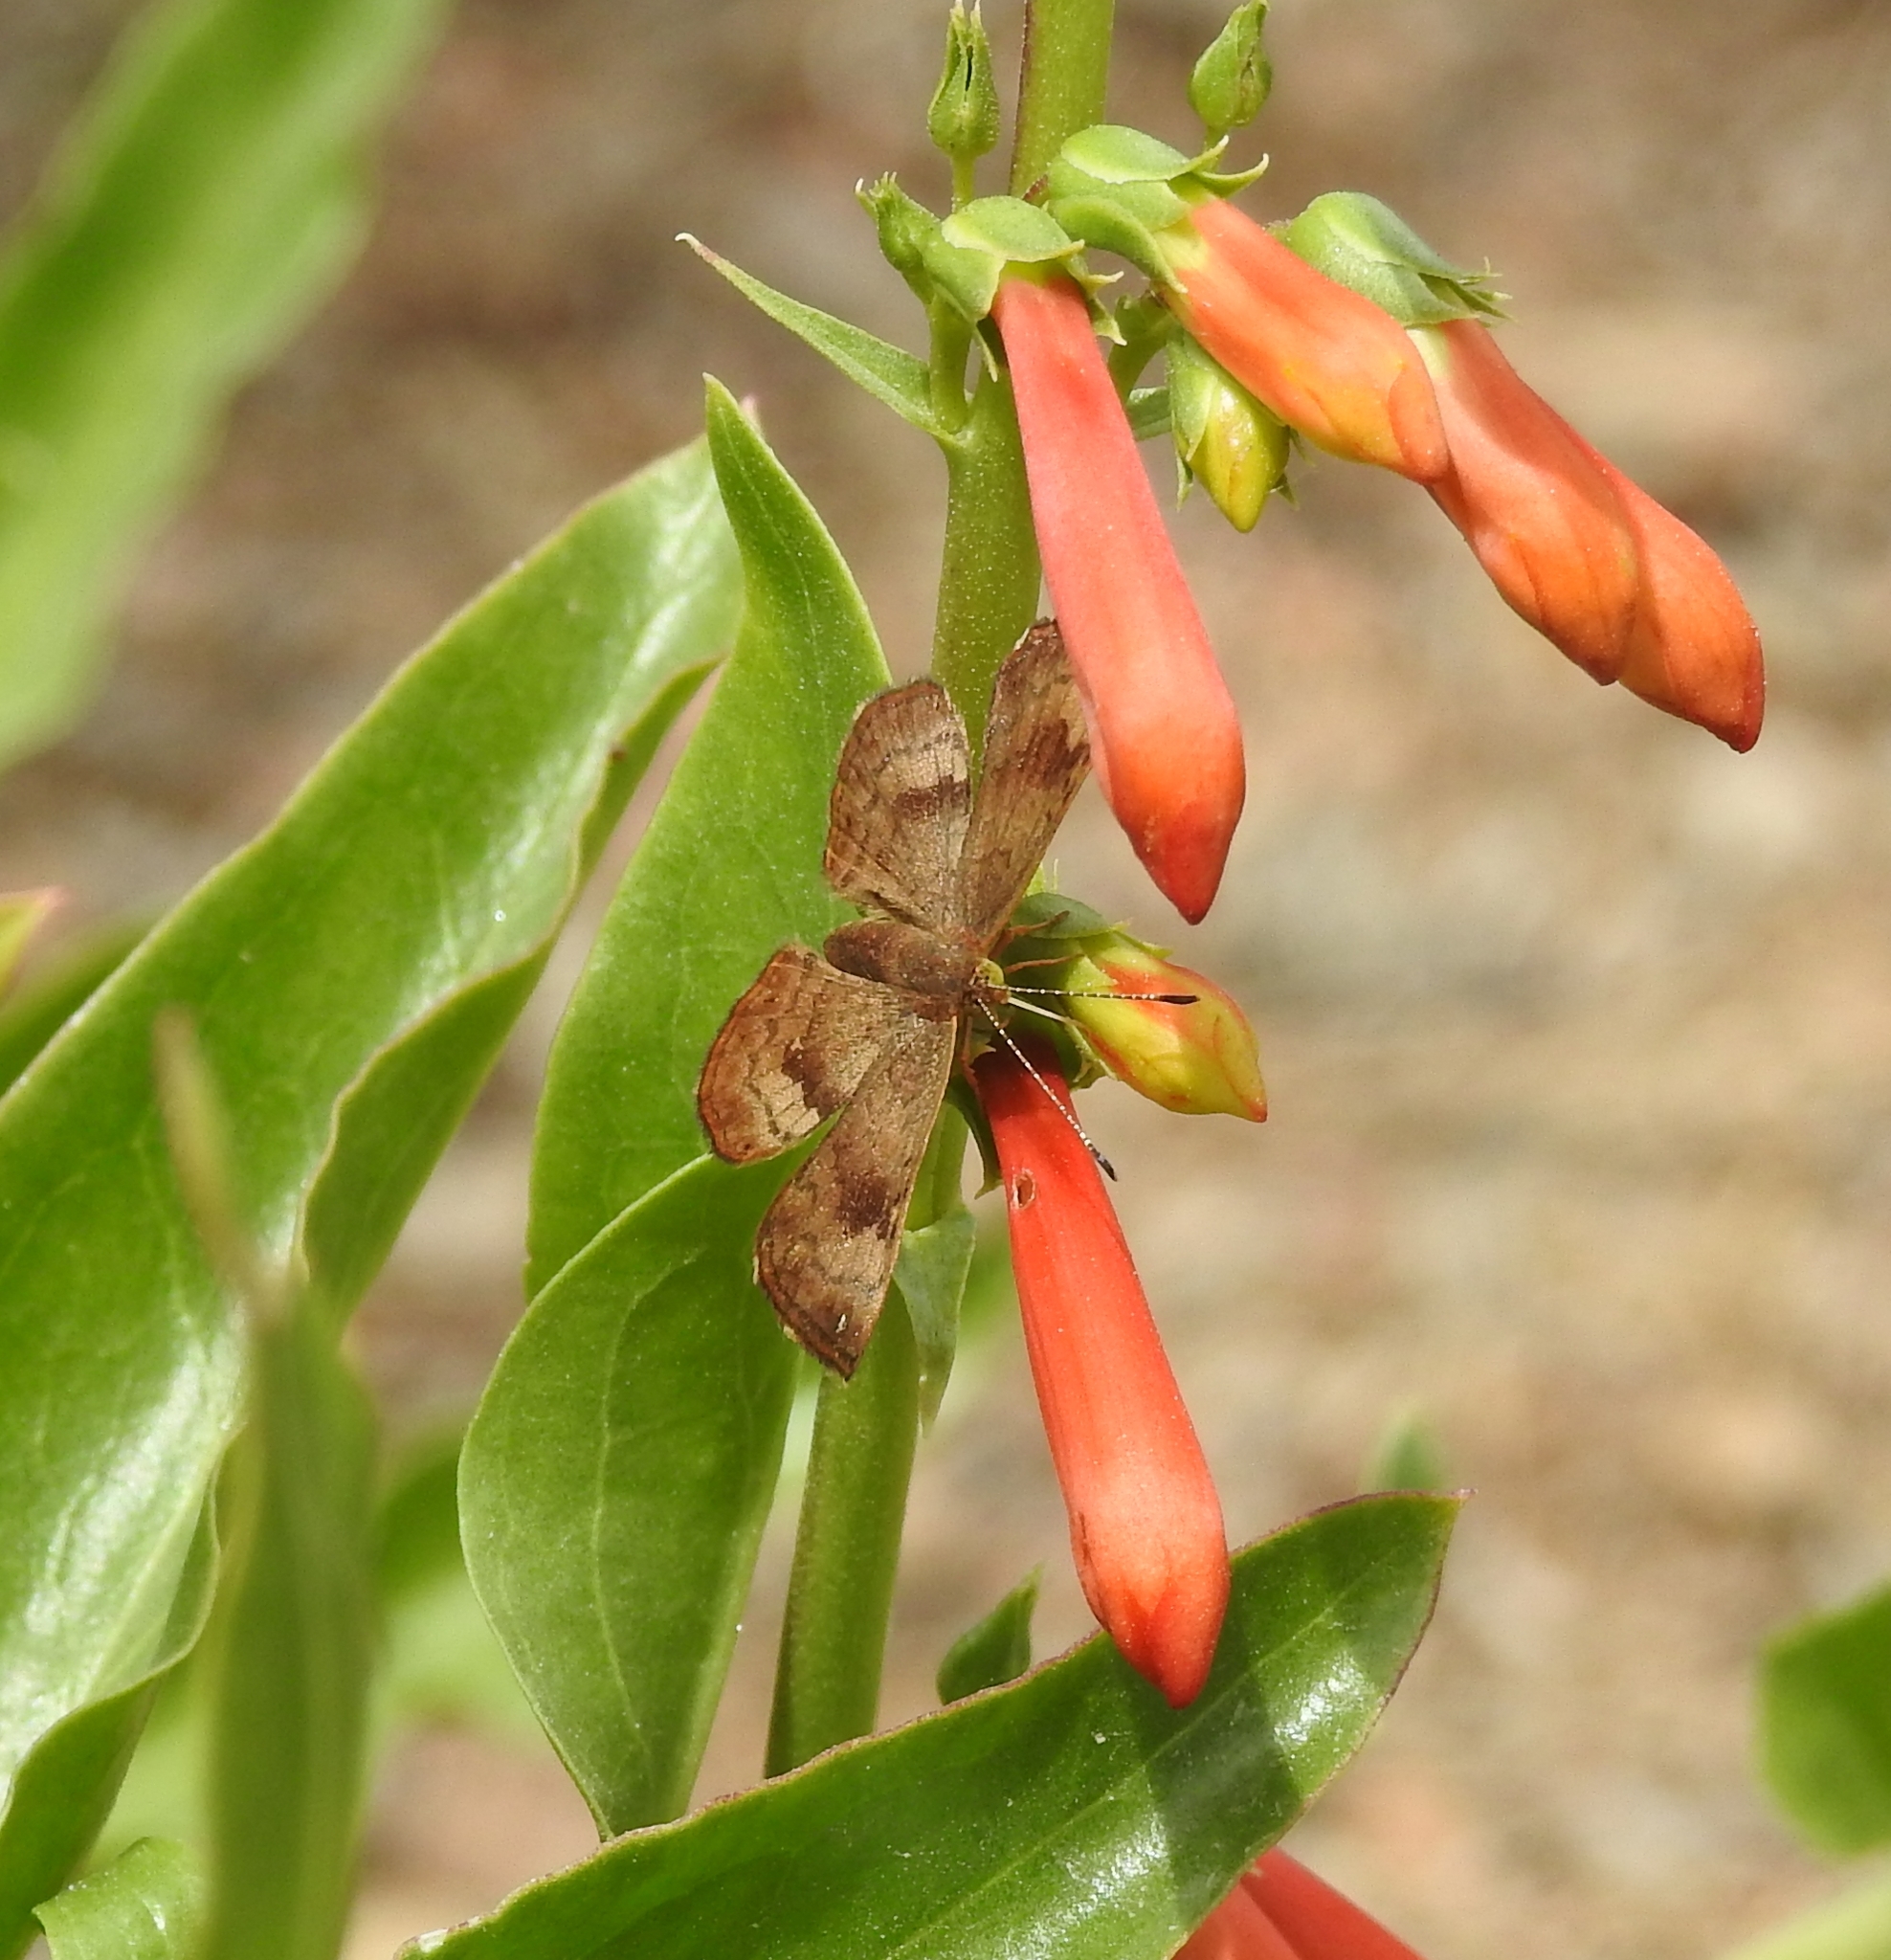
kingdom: Animalia
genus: Calephelis
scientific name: Calephelis nemesis
